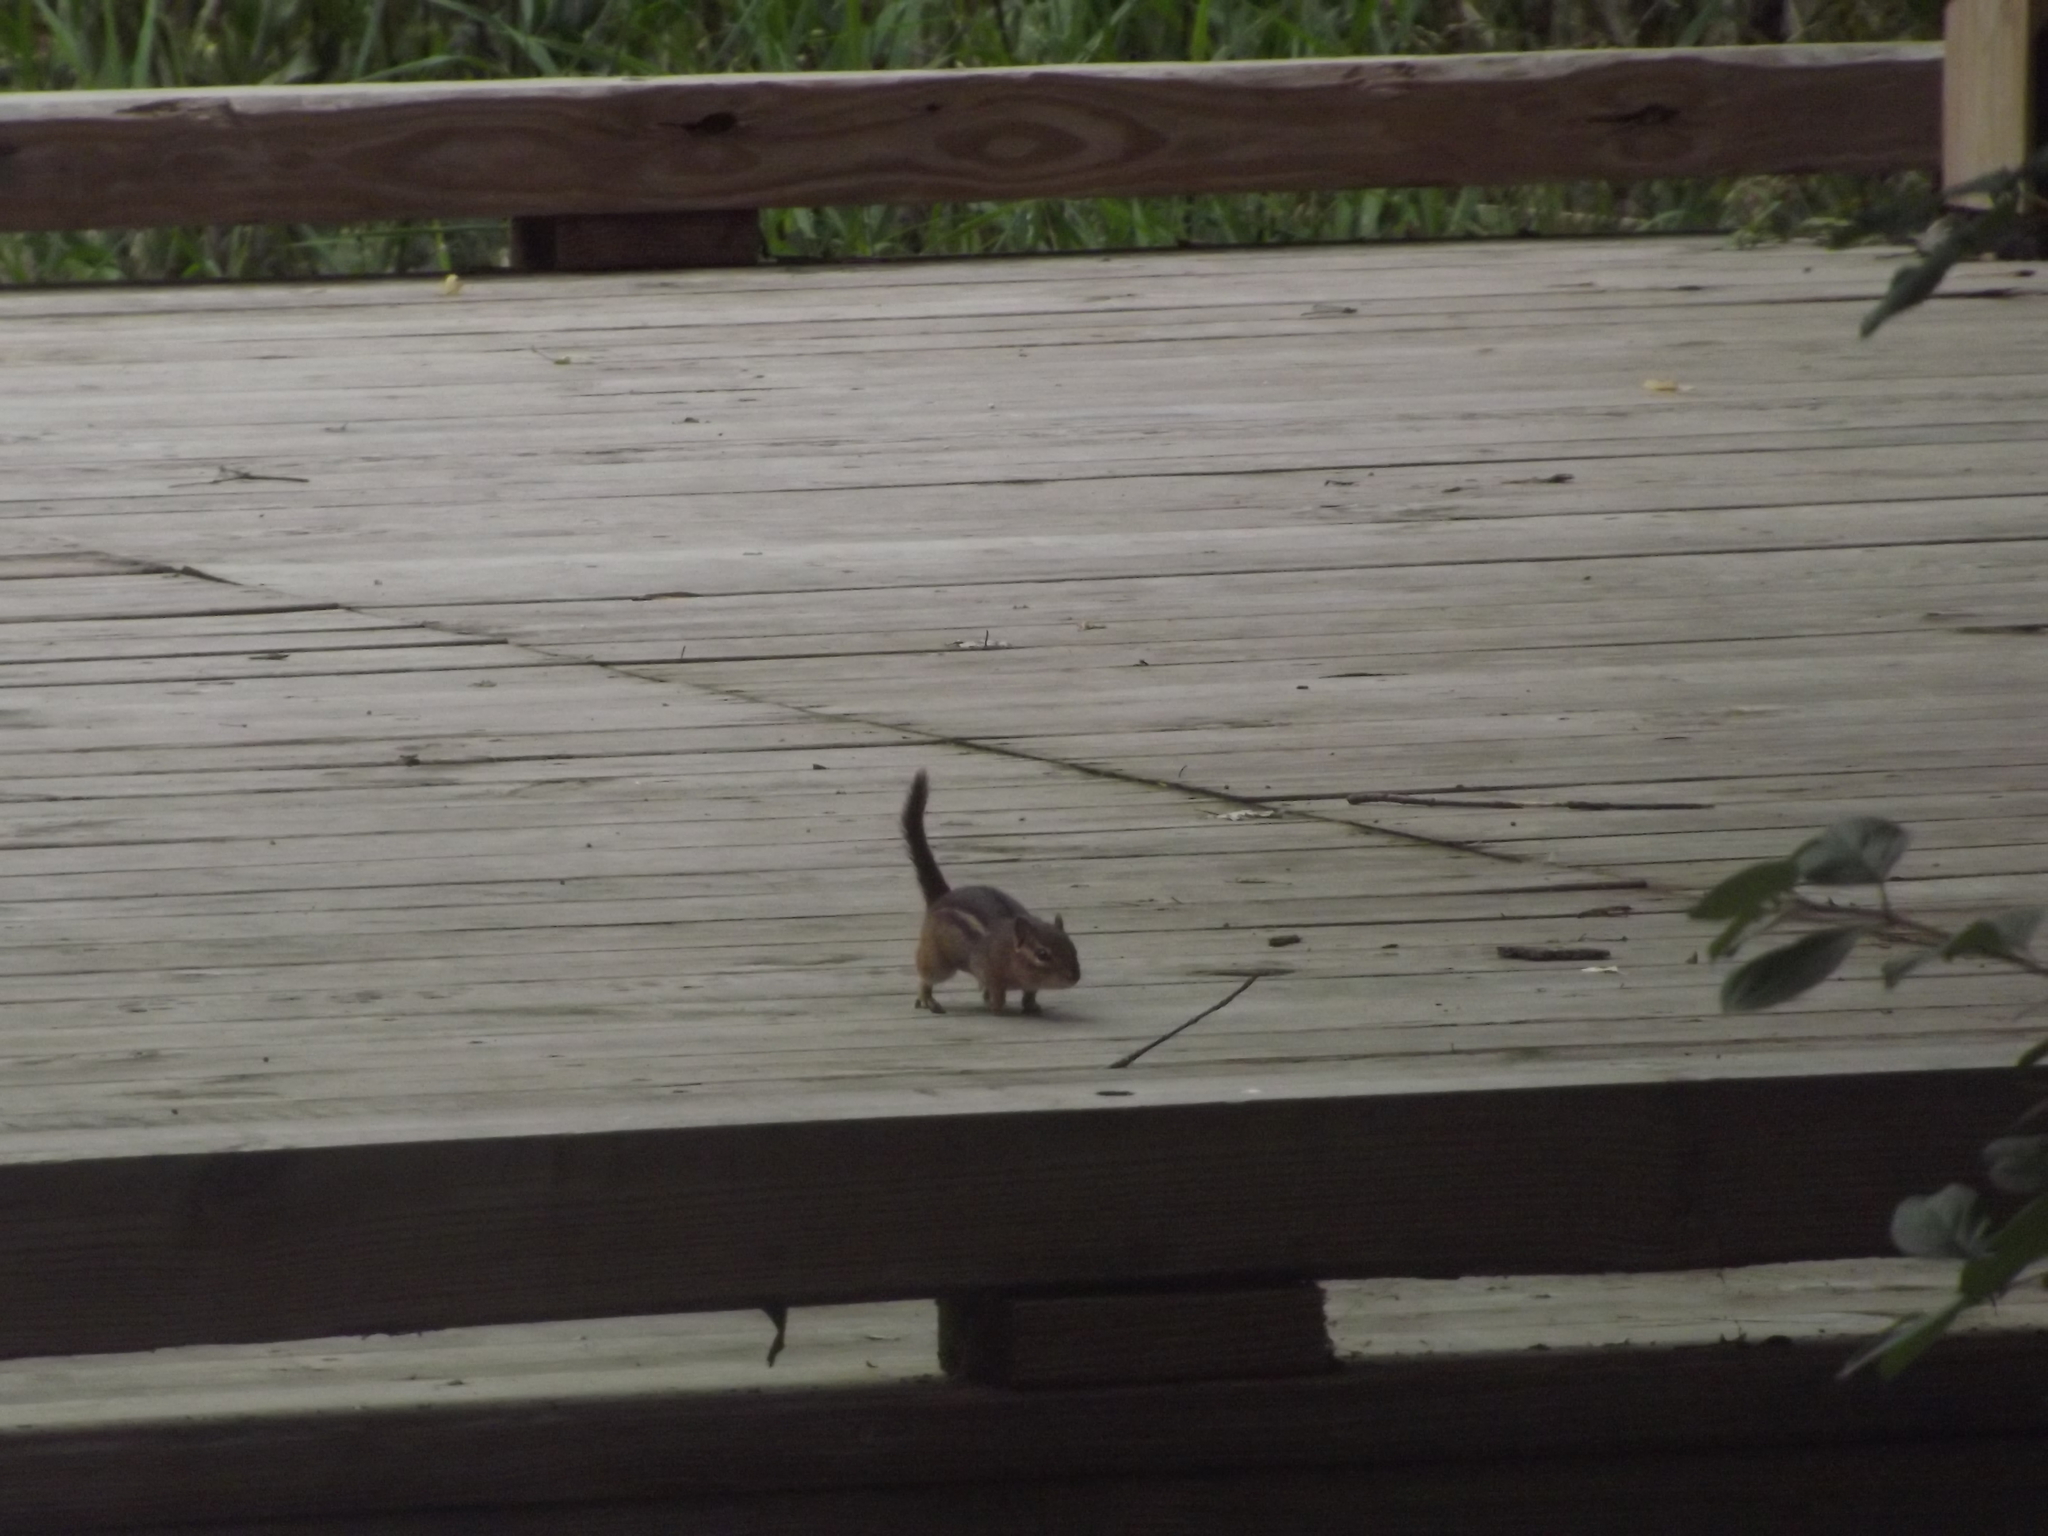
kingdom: Animalia
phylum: Chordata
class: Mammalia
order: Rodentia
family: Sciuridae
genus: Tamias
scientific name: Tamias striatus
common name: Eastern chipmunk
